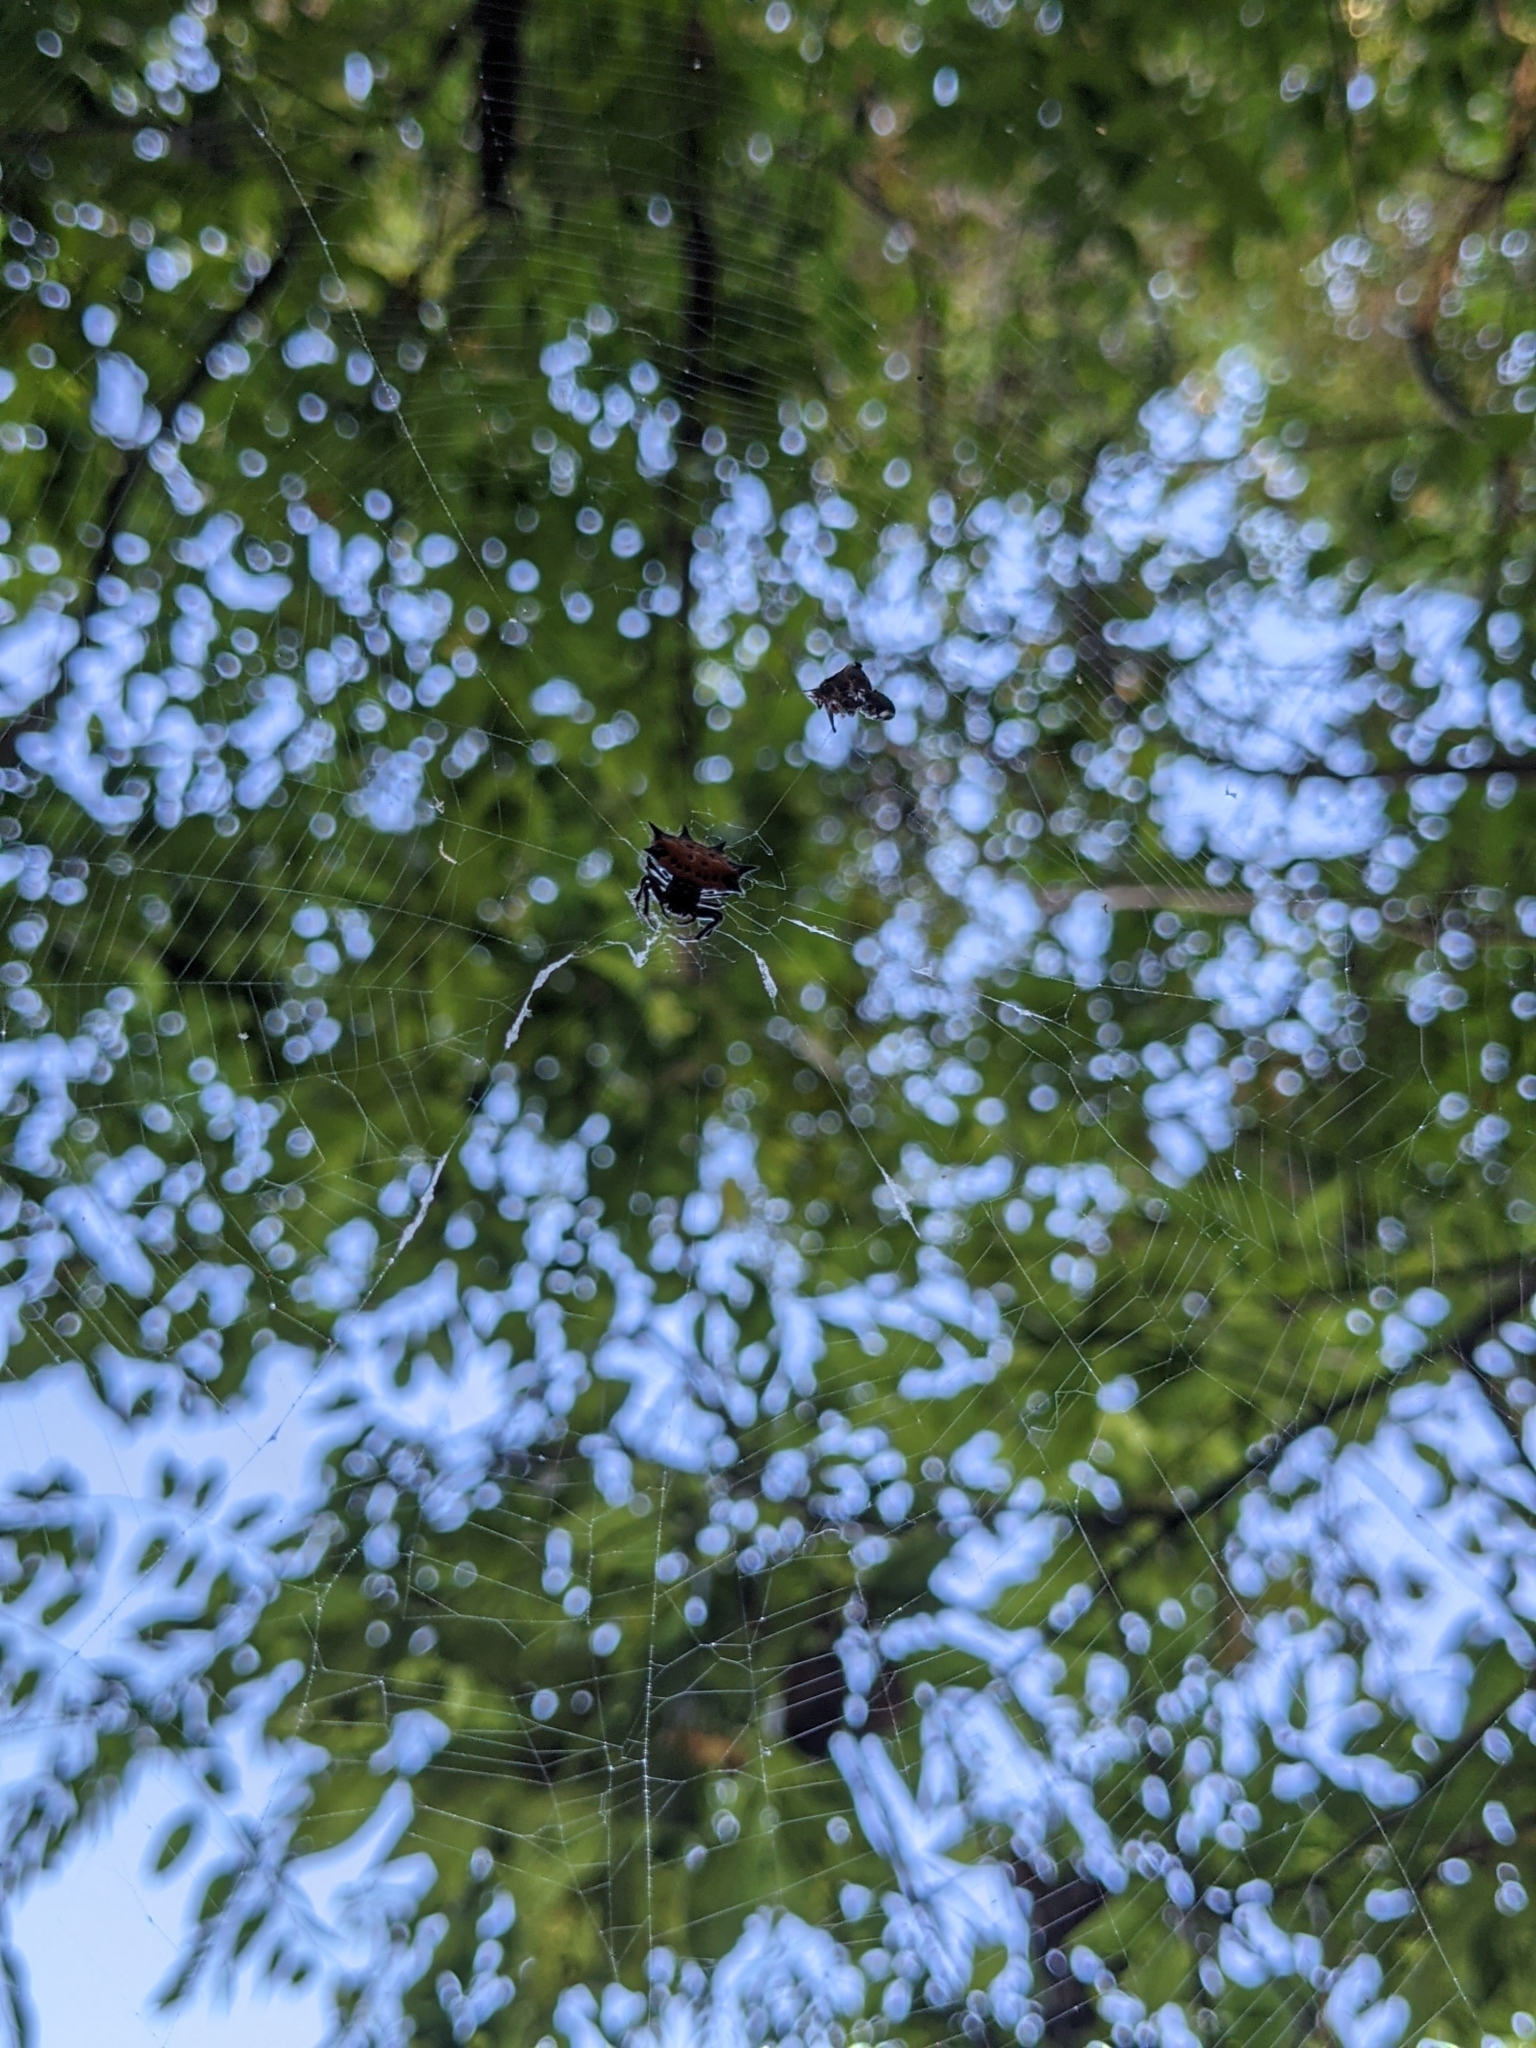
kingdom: Animalia
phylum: Arthropoda
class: Arachnida
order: Araneae
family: Araneidae
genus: Gasteracantha
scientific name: Gasteracantha cancriformis
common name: Orb weavers
